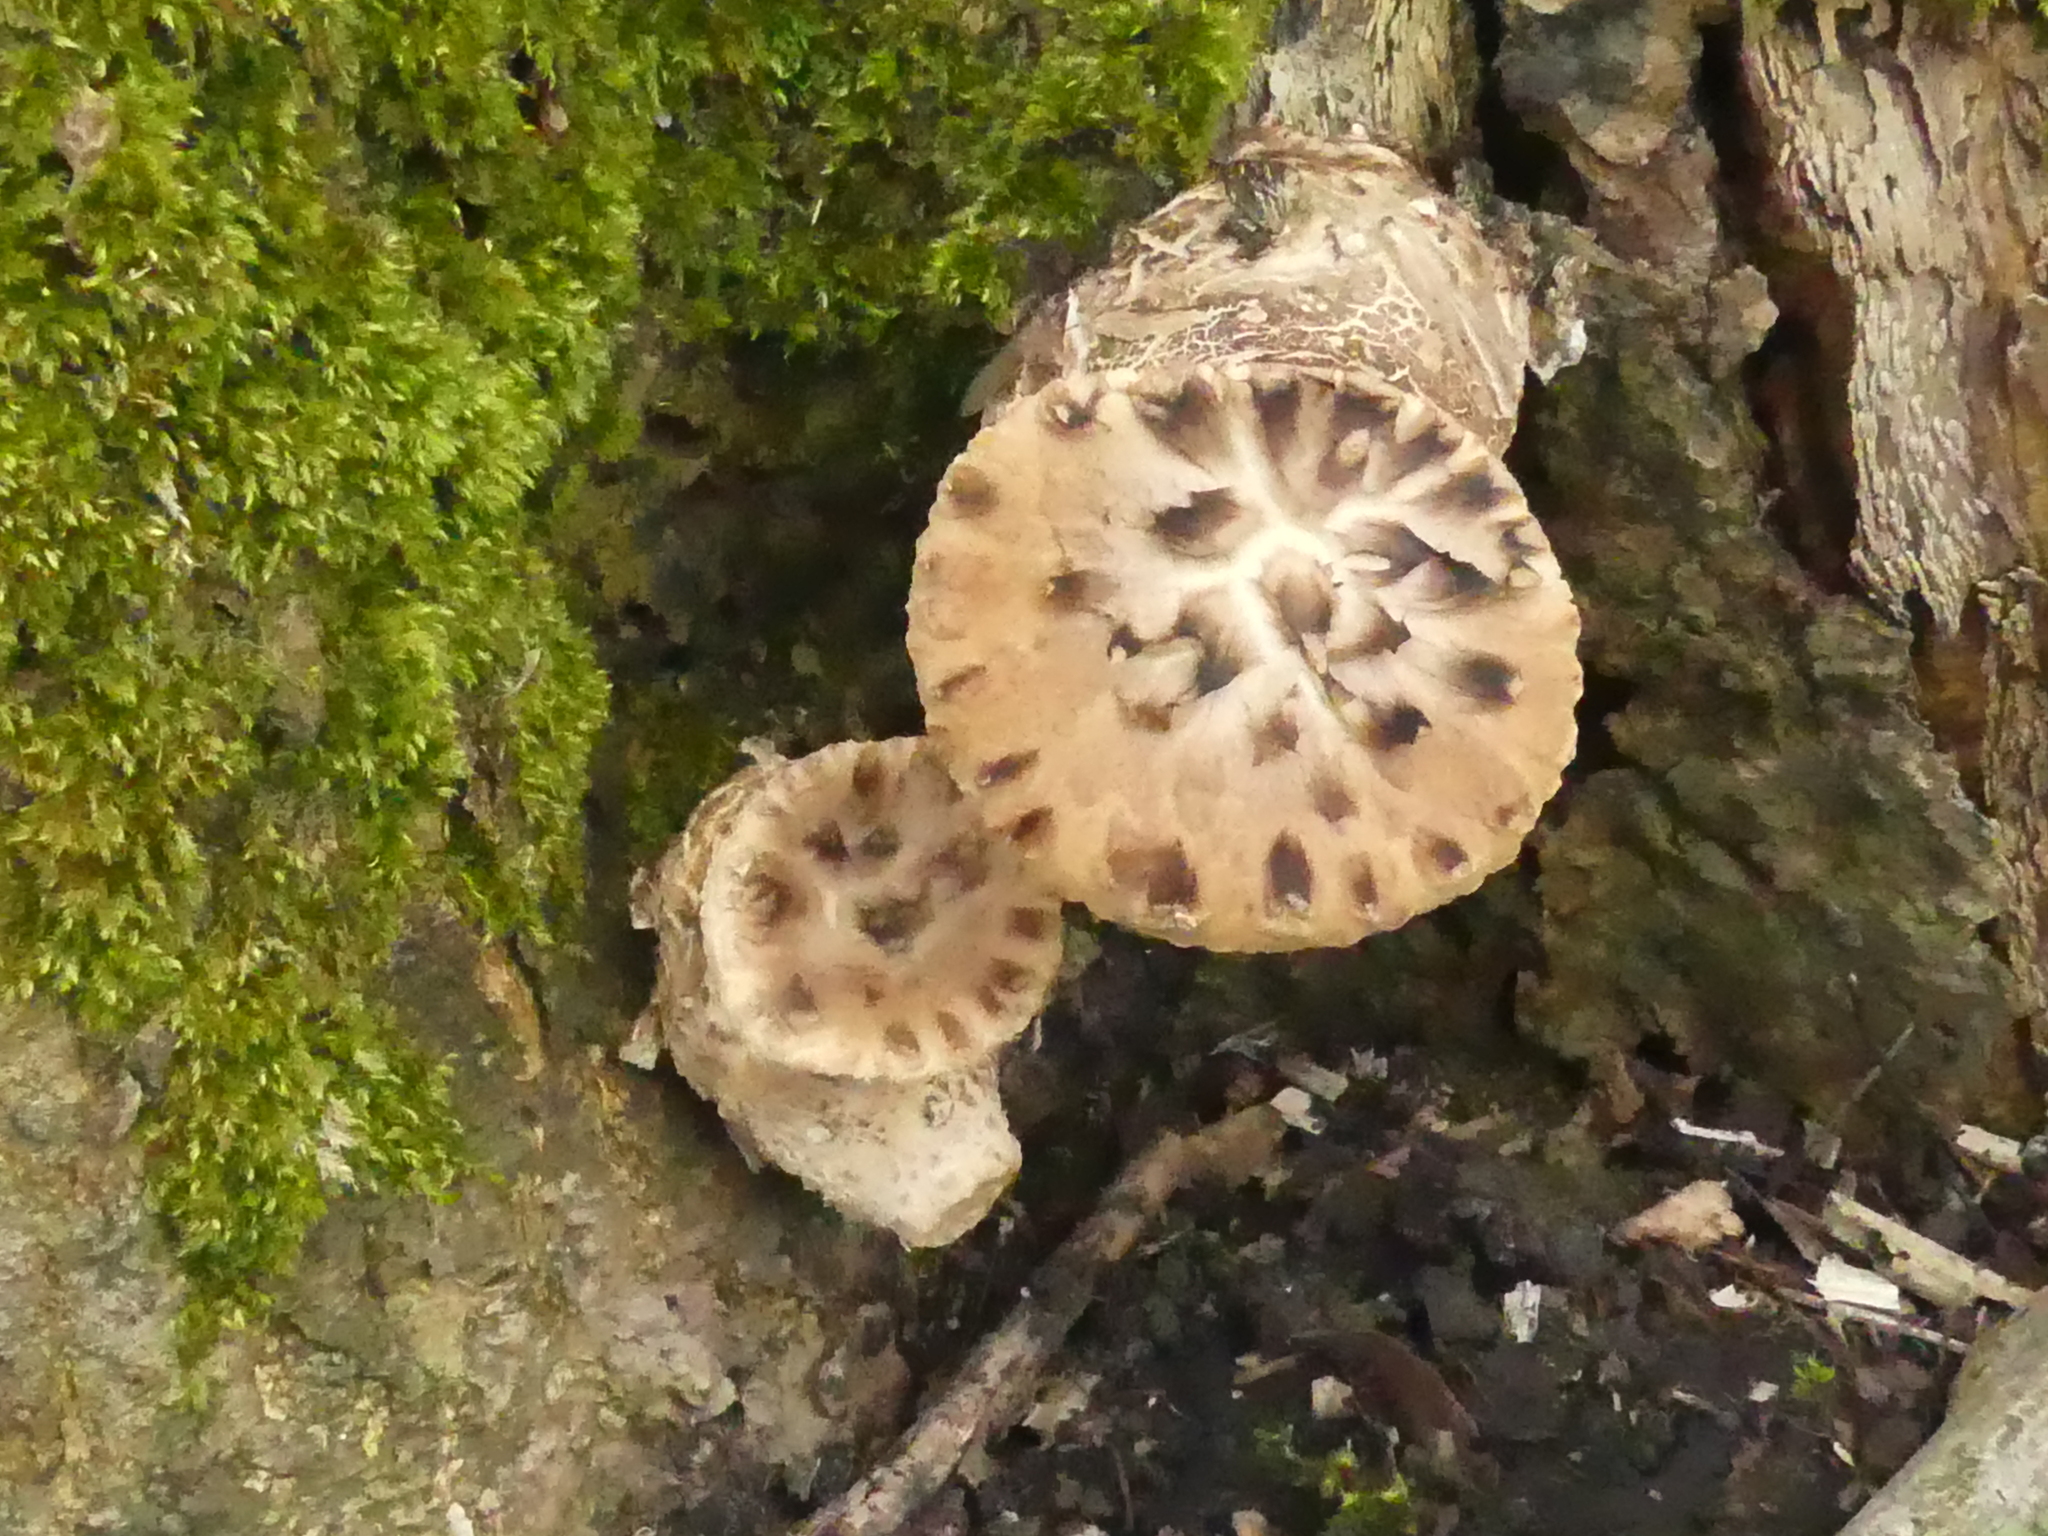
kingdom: Fungi
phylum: Basidiomycota
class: Agaricomycetes
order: Polyporales
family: Polyporaceae
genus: Cerioporus
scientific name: Cerioporus squamosus
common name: Dryad's saddle
